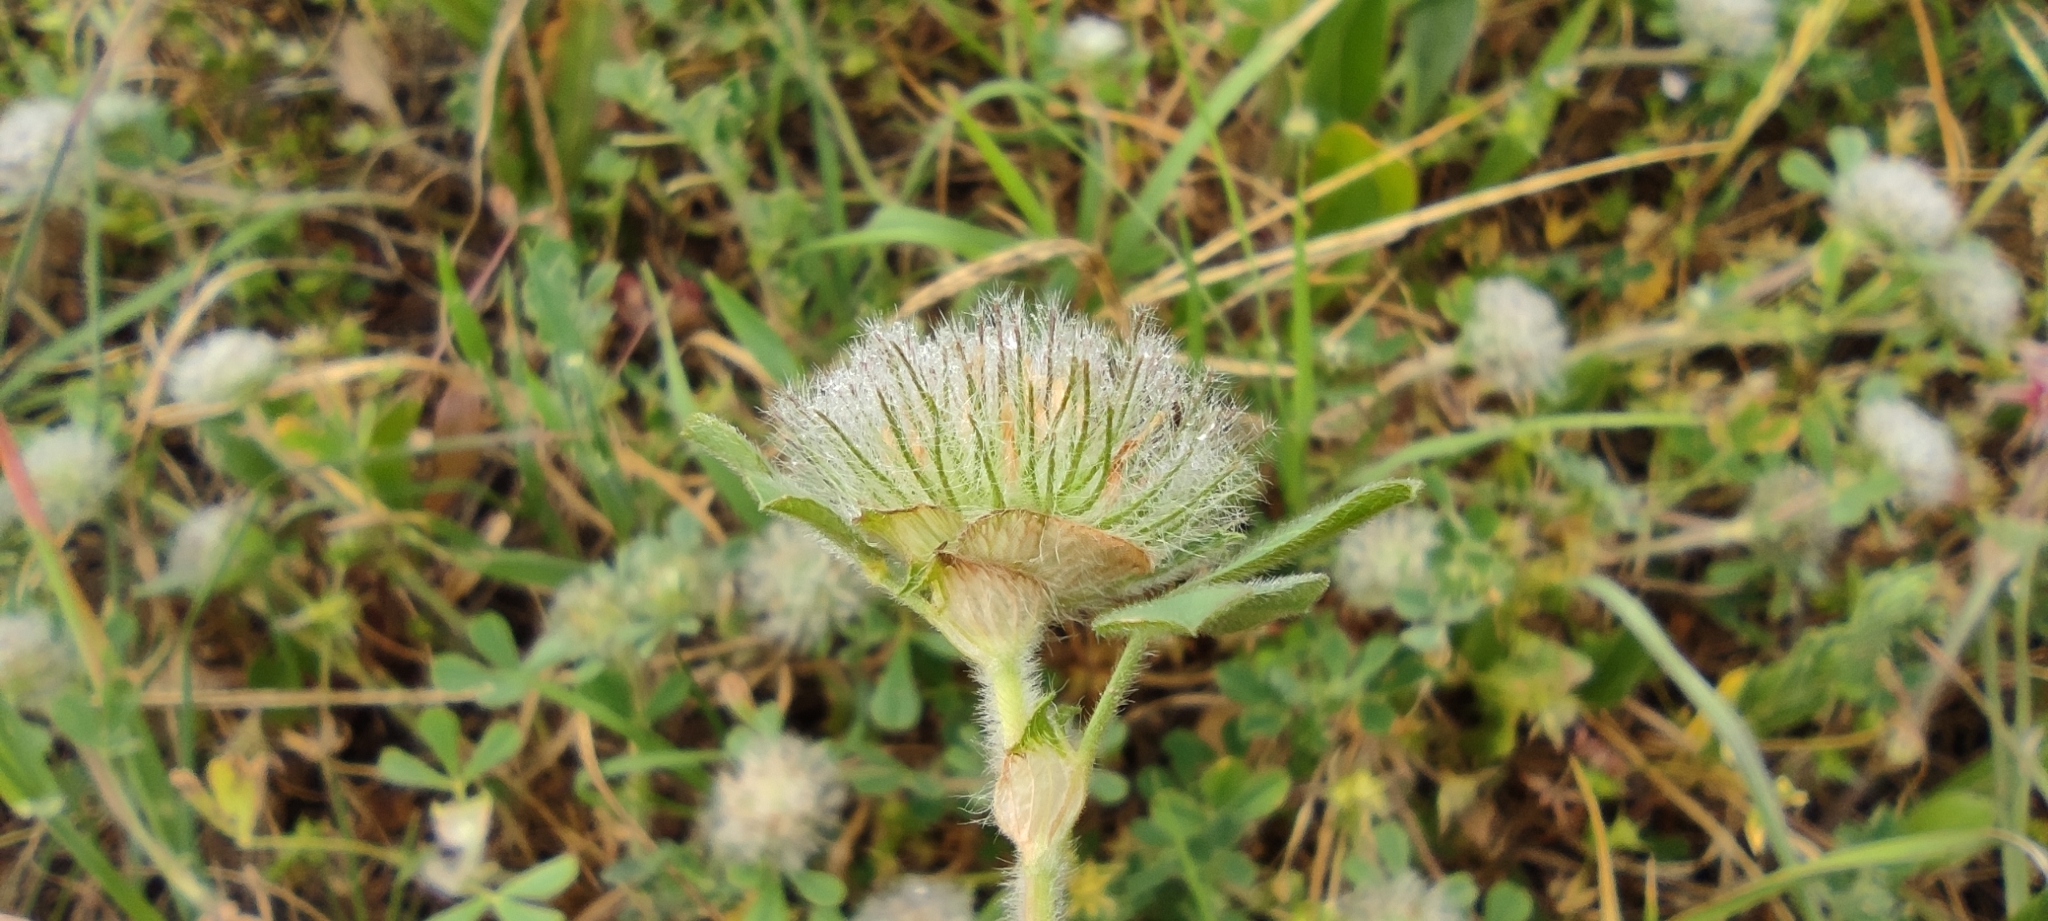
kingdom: Plantae
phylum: Tracheophyta
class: Magnoliopsida
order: Fabales
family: Fabaceae
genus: Trifolium
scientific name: Trifolium cherleri
